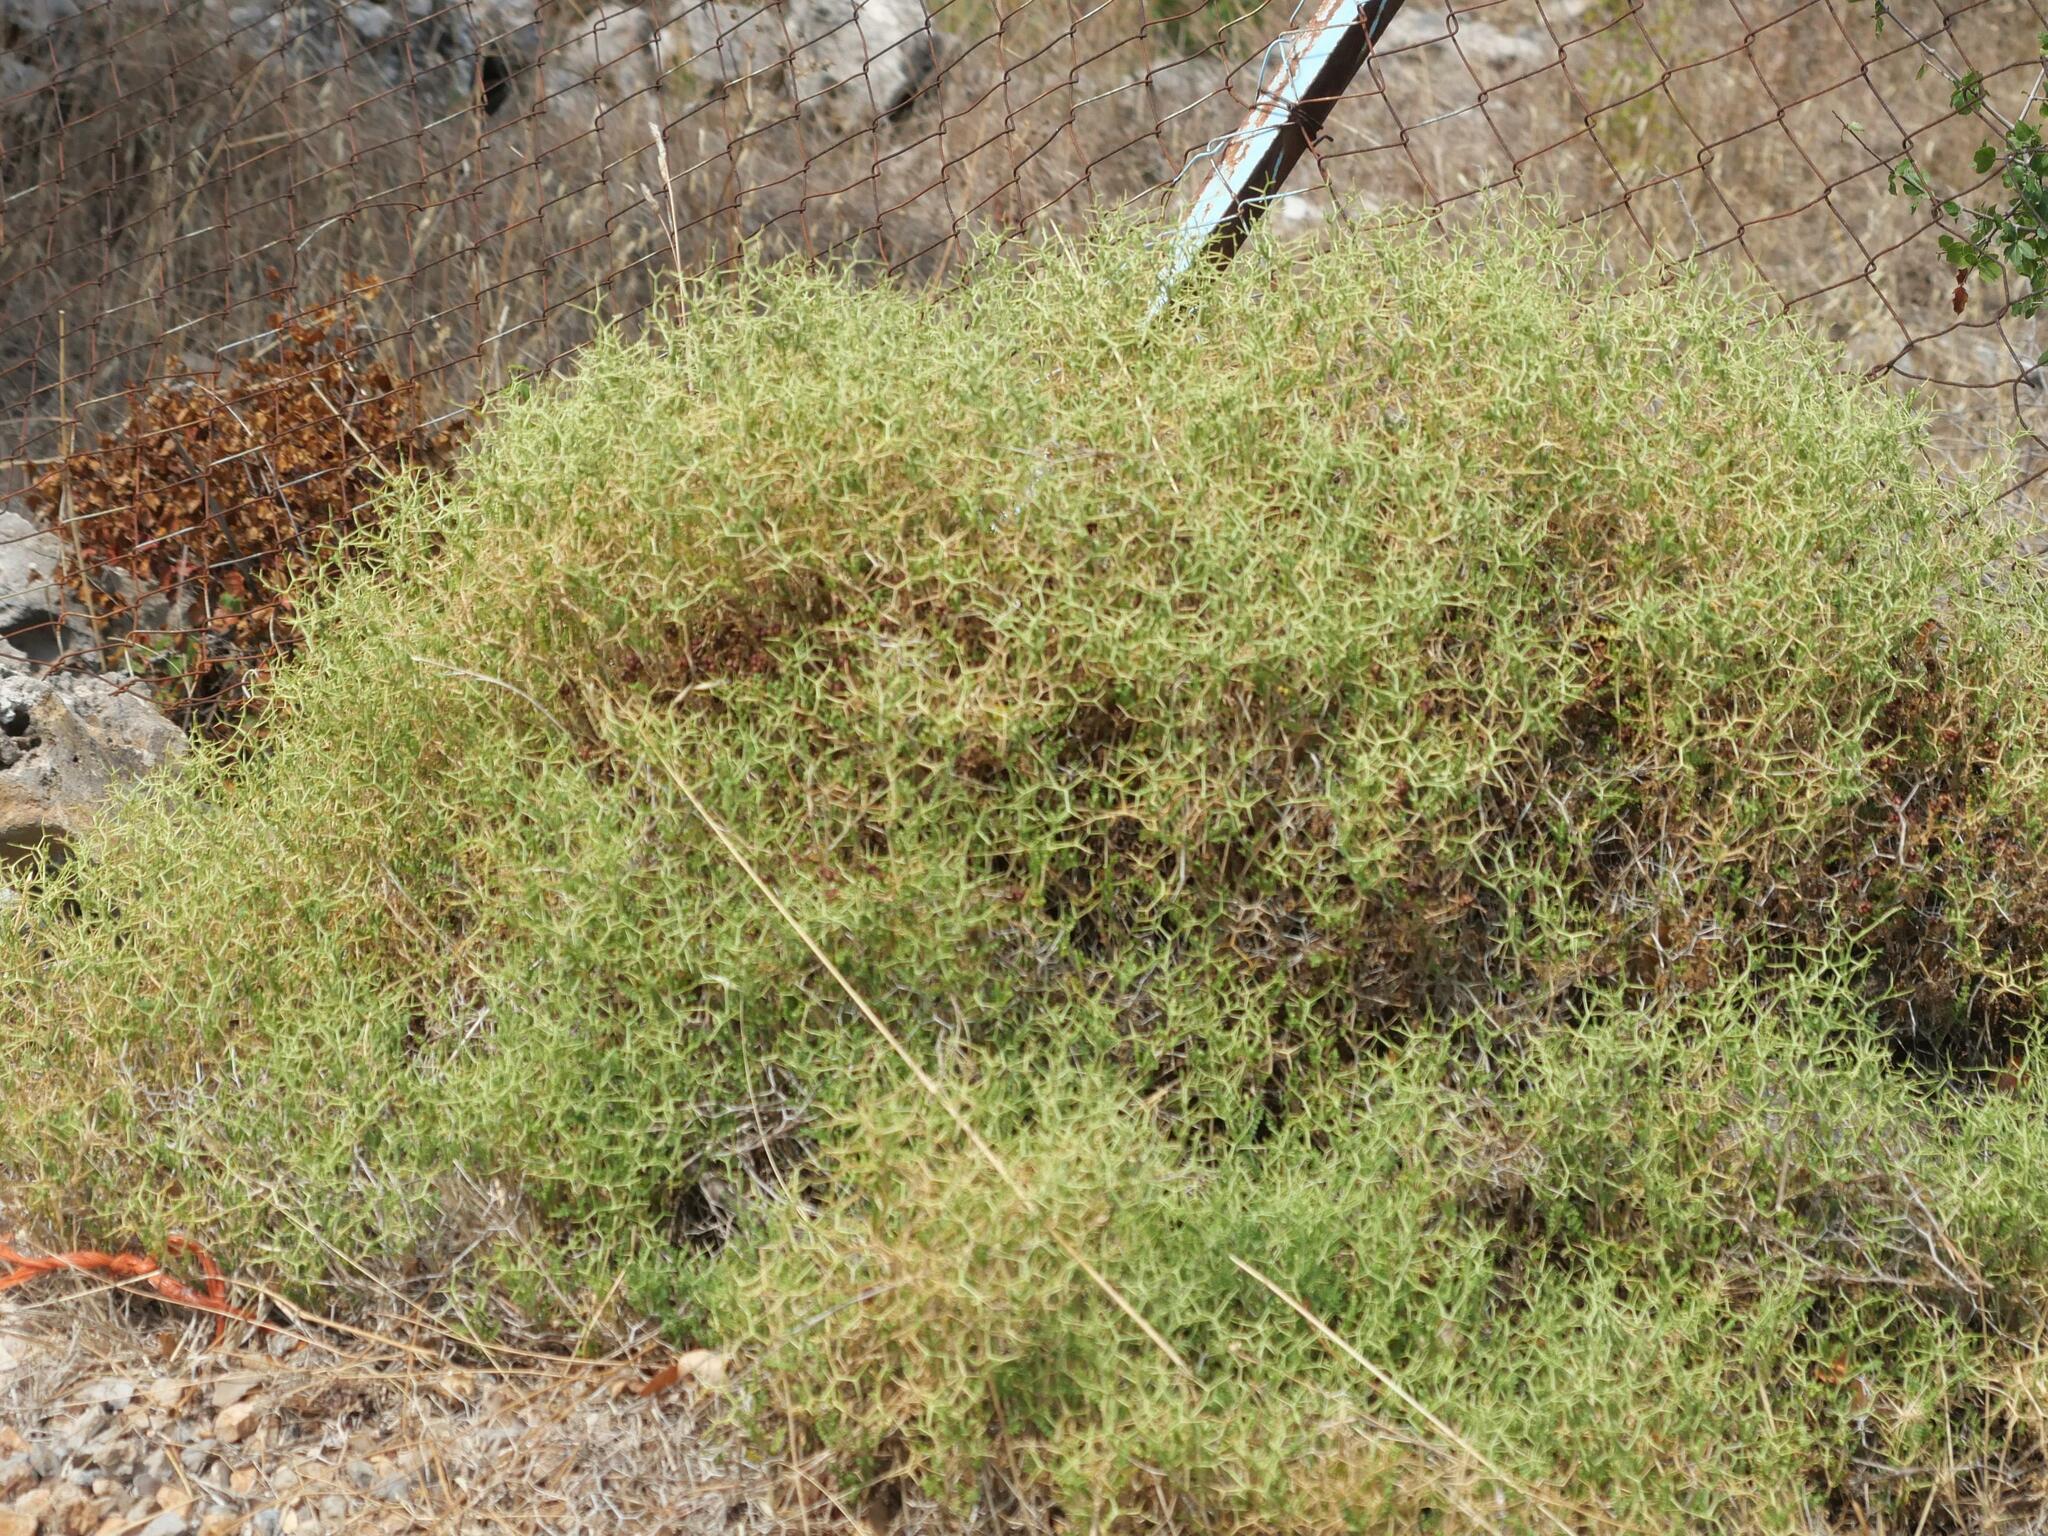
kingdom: Plantae
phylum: Tracheophyta
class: Magnoliopsida
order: Rosales
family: Rosaceae
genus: Sarcopoterium
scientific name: Sarcopoterium spinosum
